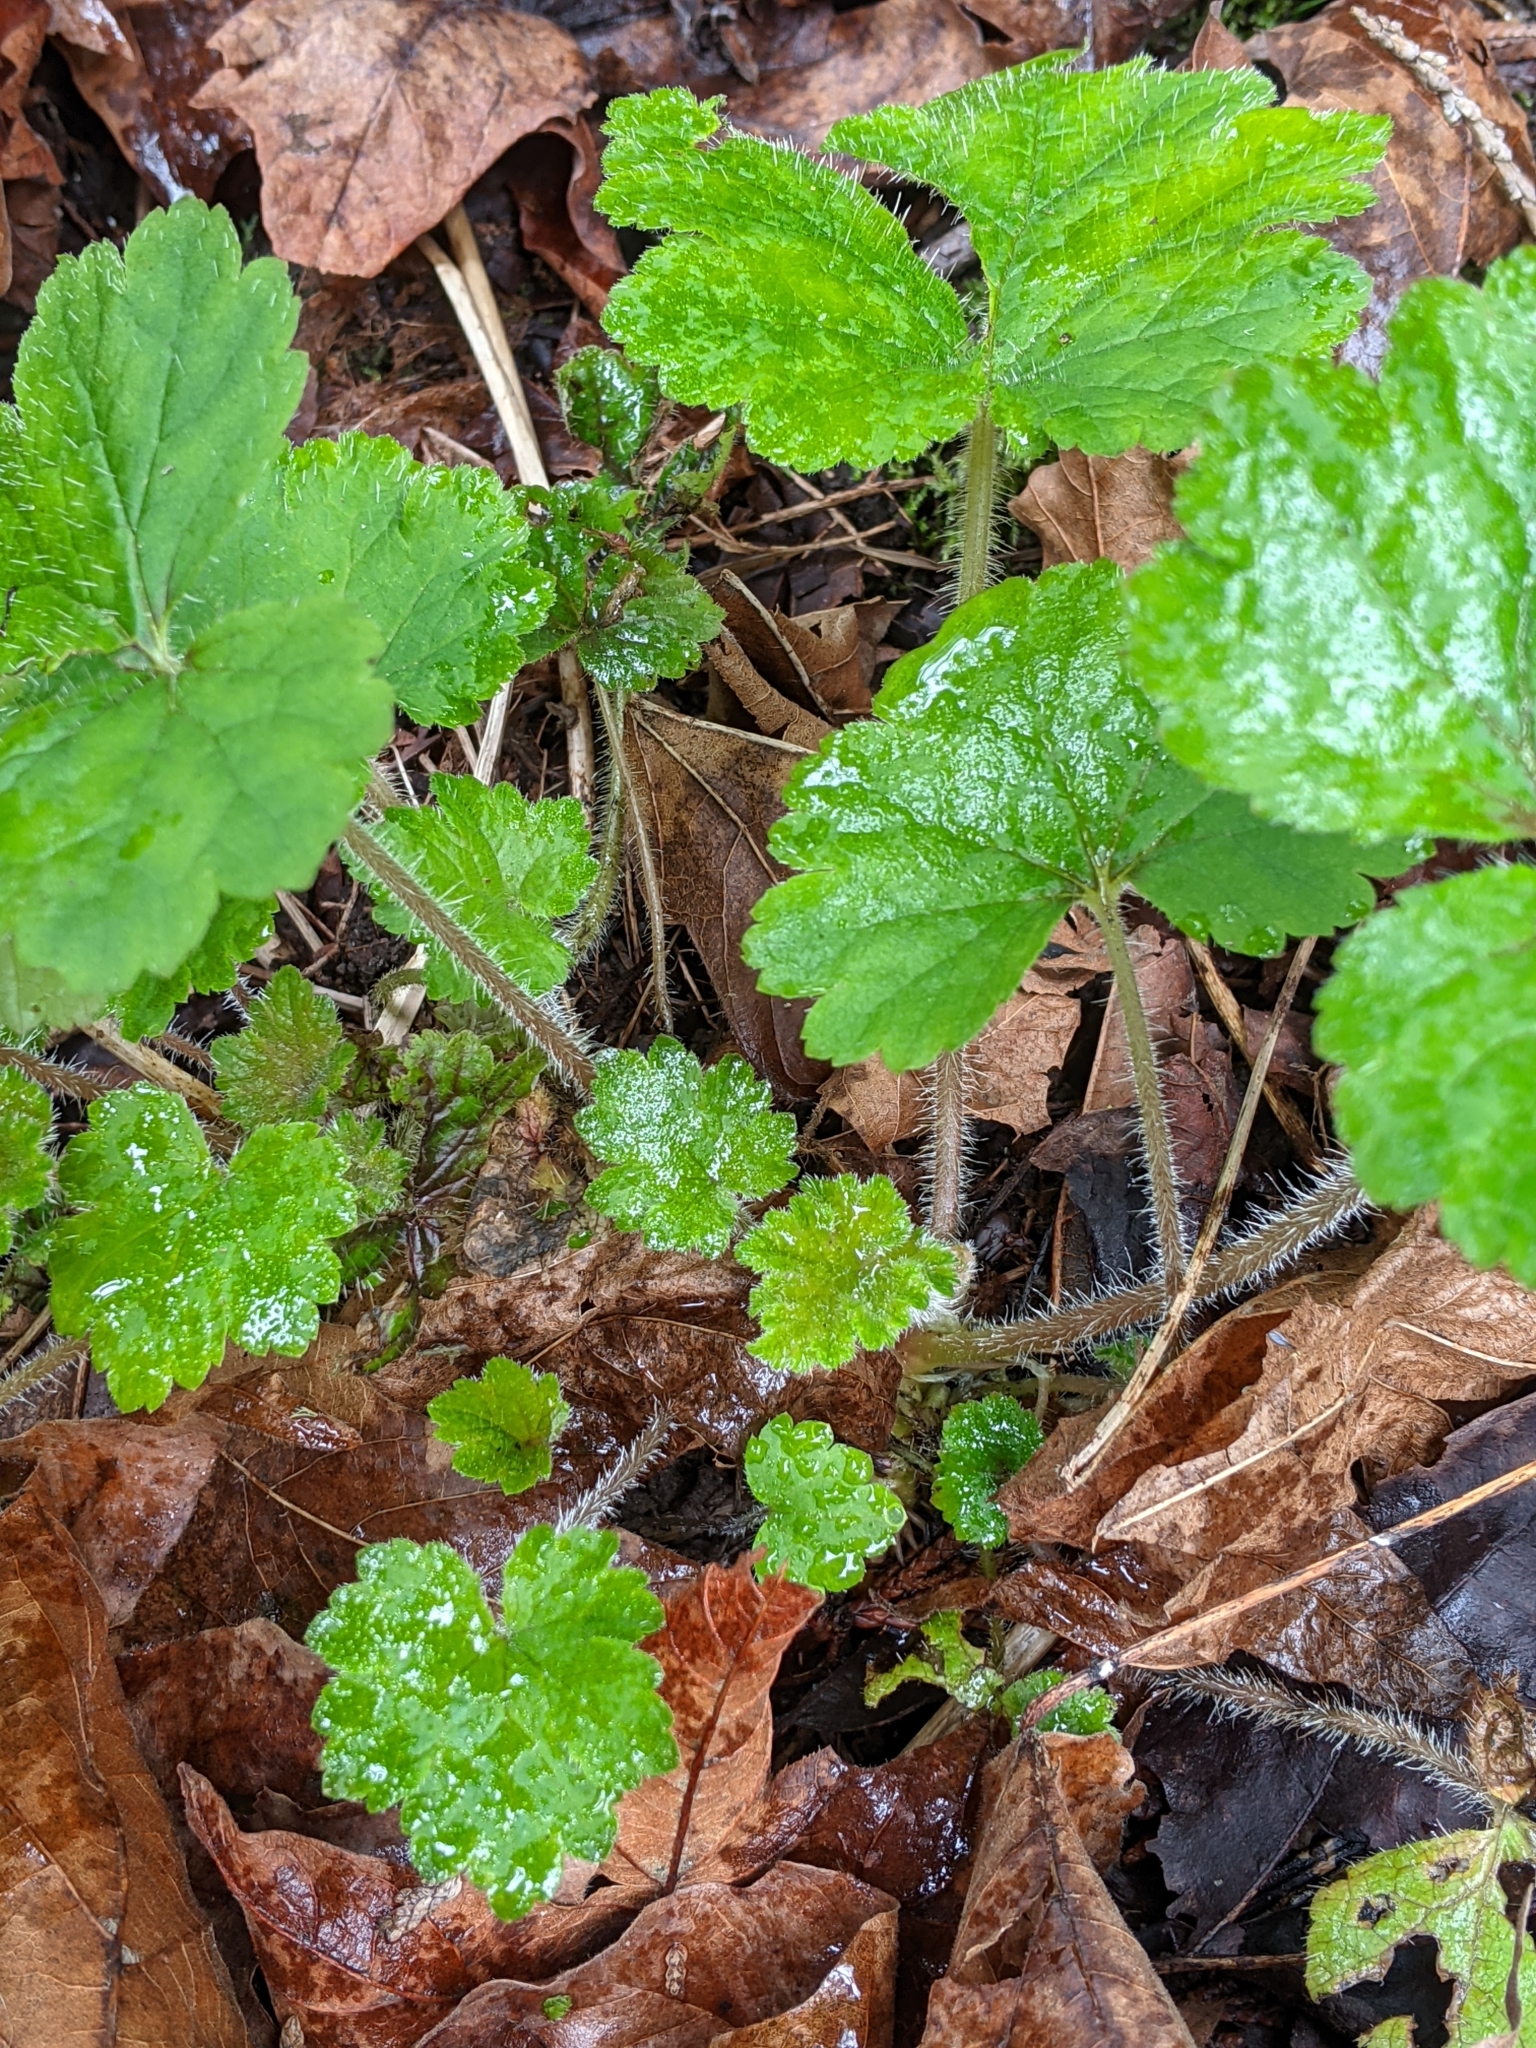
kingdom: Plantae
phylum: Tracheophyta
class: Magnoliopsida
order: Saxifragales
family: Saxifragaceae
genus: Tellima
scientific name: Tellima grandiflora
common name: Fringecups
